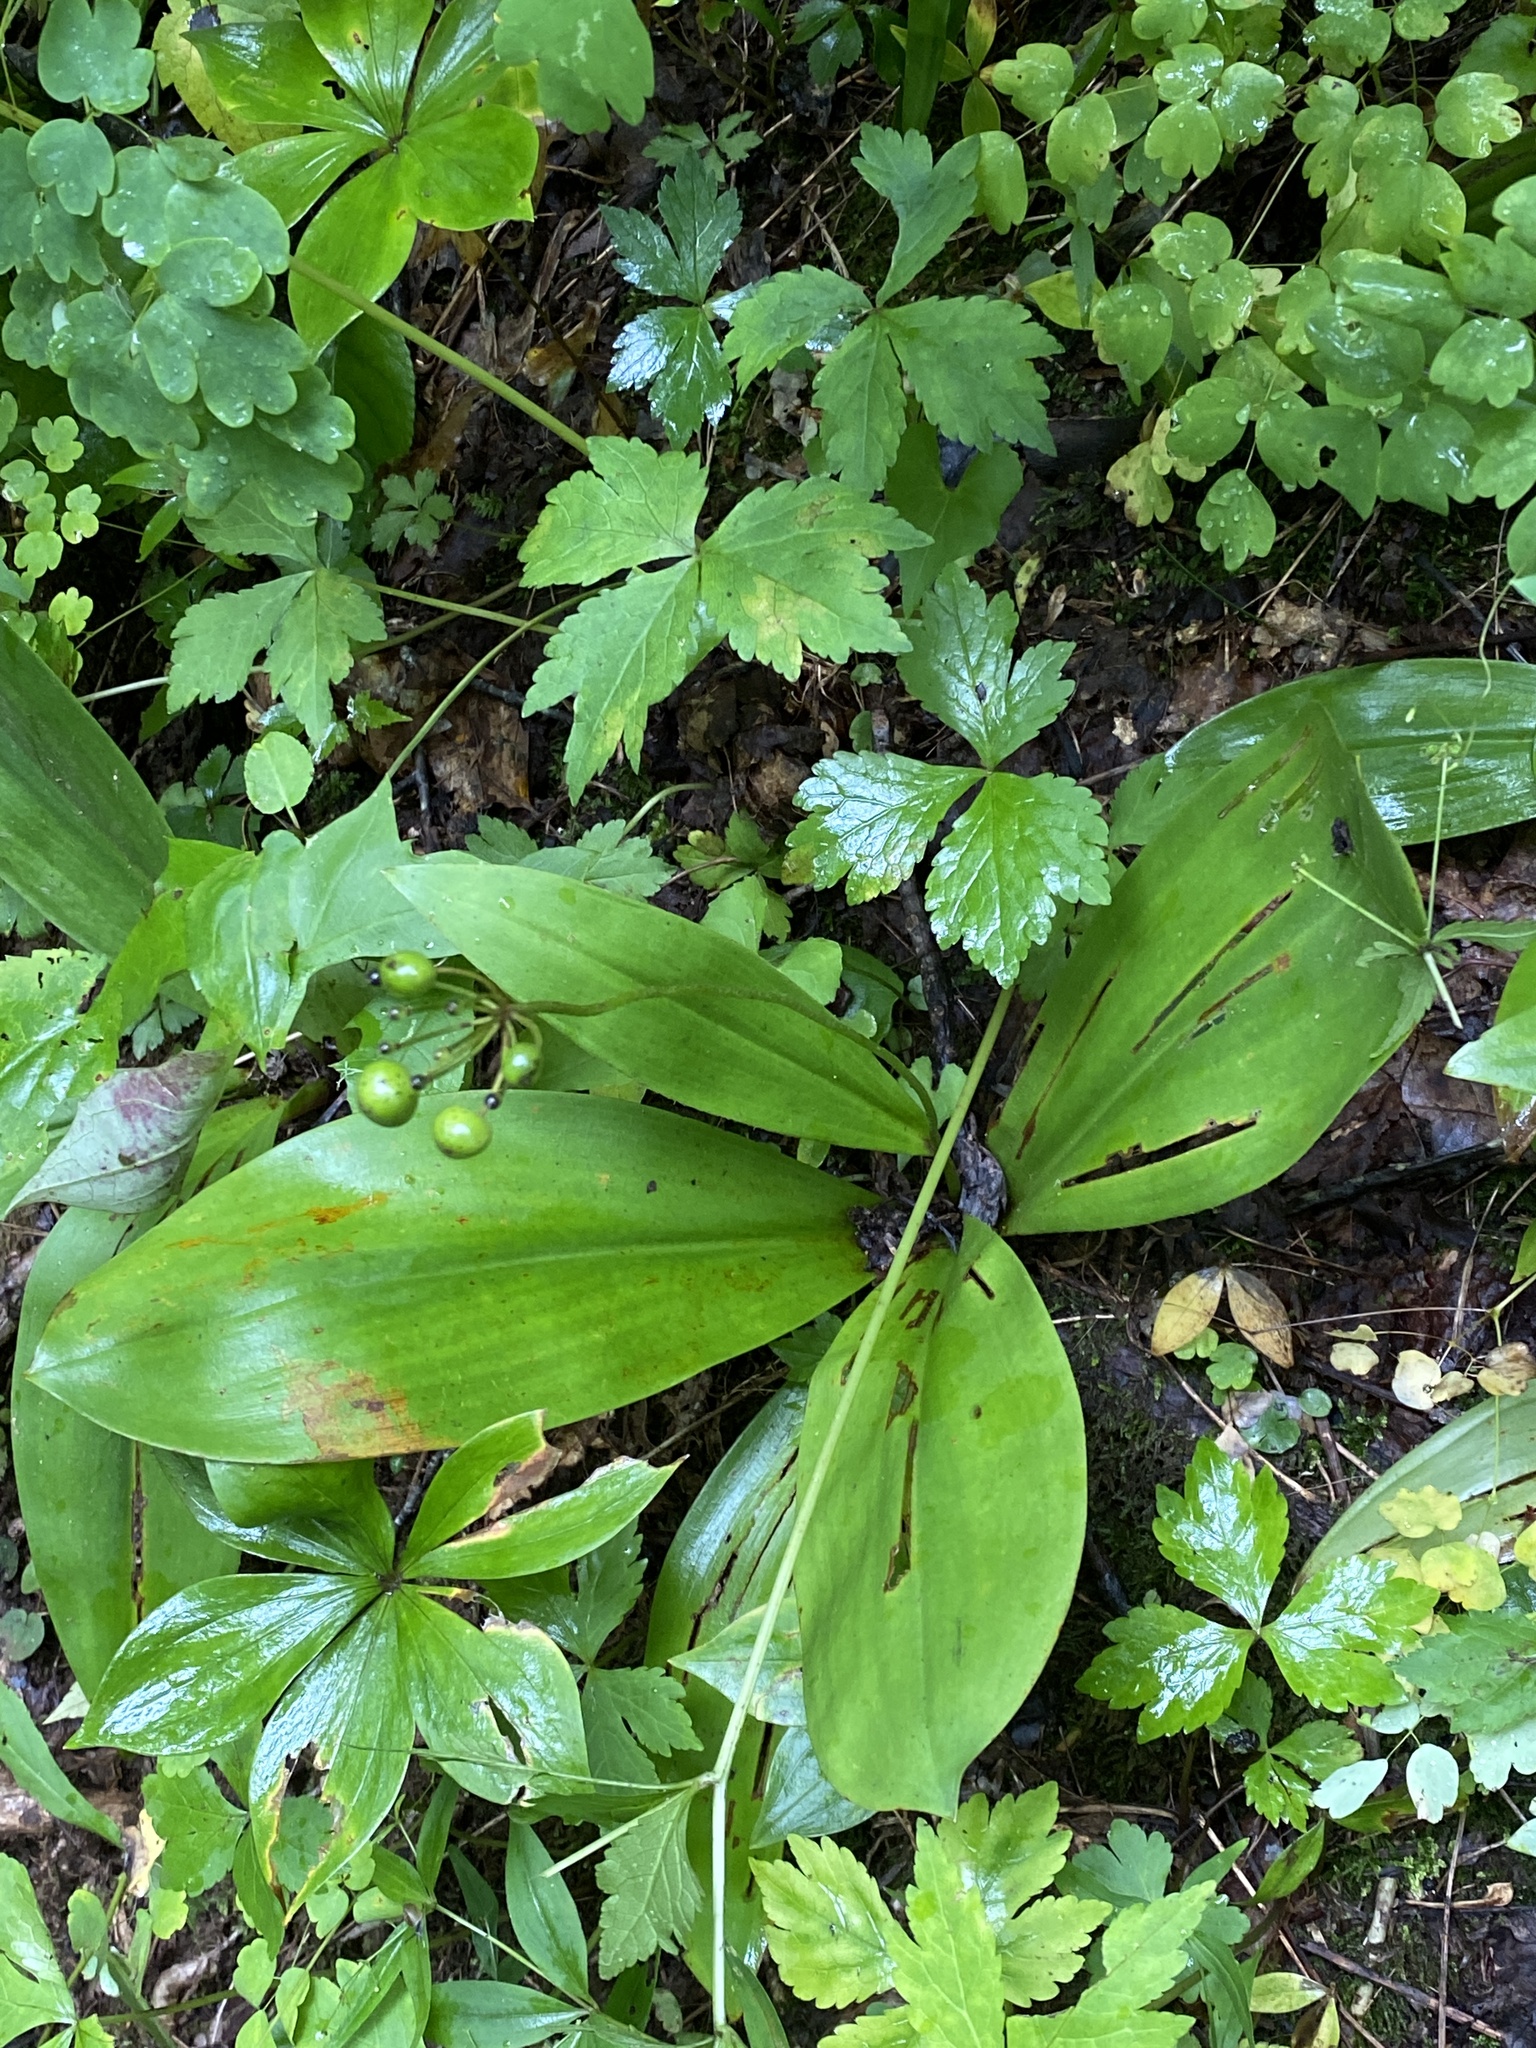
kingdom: Plantae
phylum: Tracheophyta
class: Liliopsida
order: Liliales
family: Liliaceae
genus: Clintonia
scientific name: Clintonia borealis
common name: Yellow clintonia
